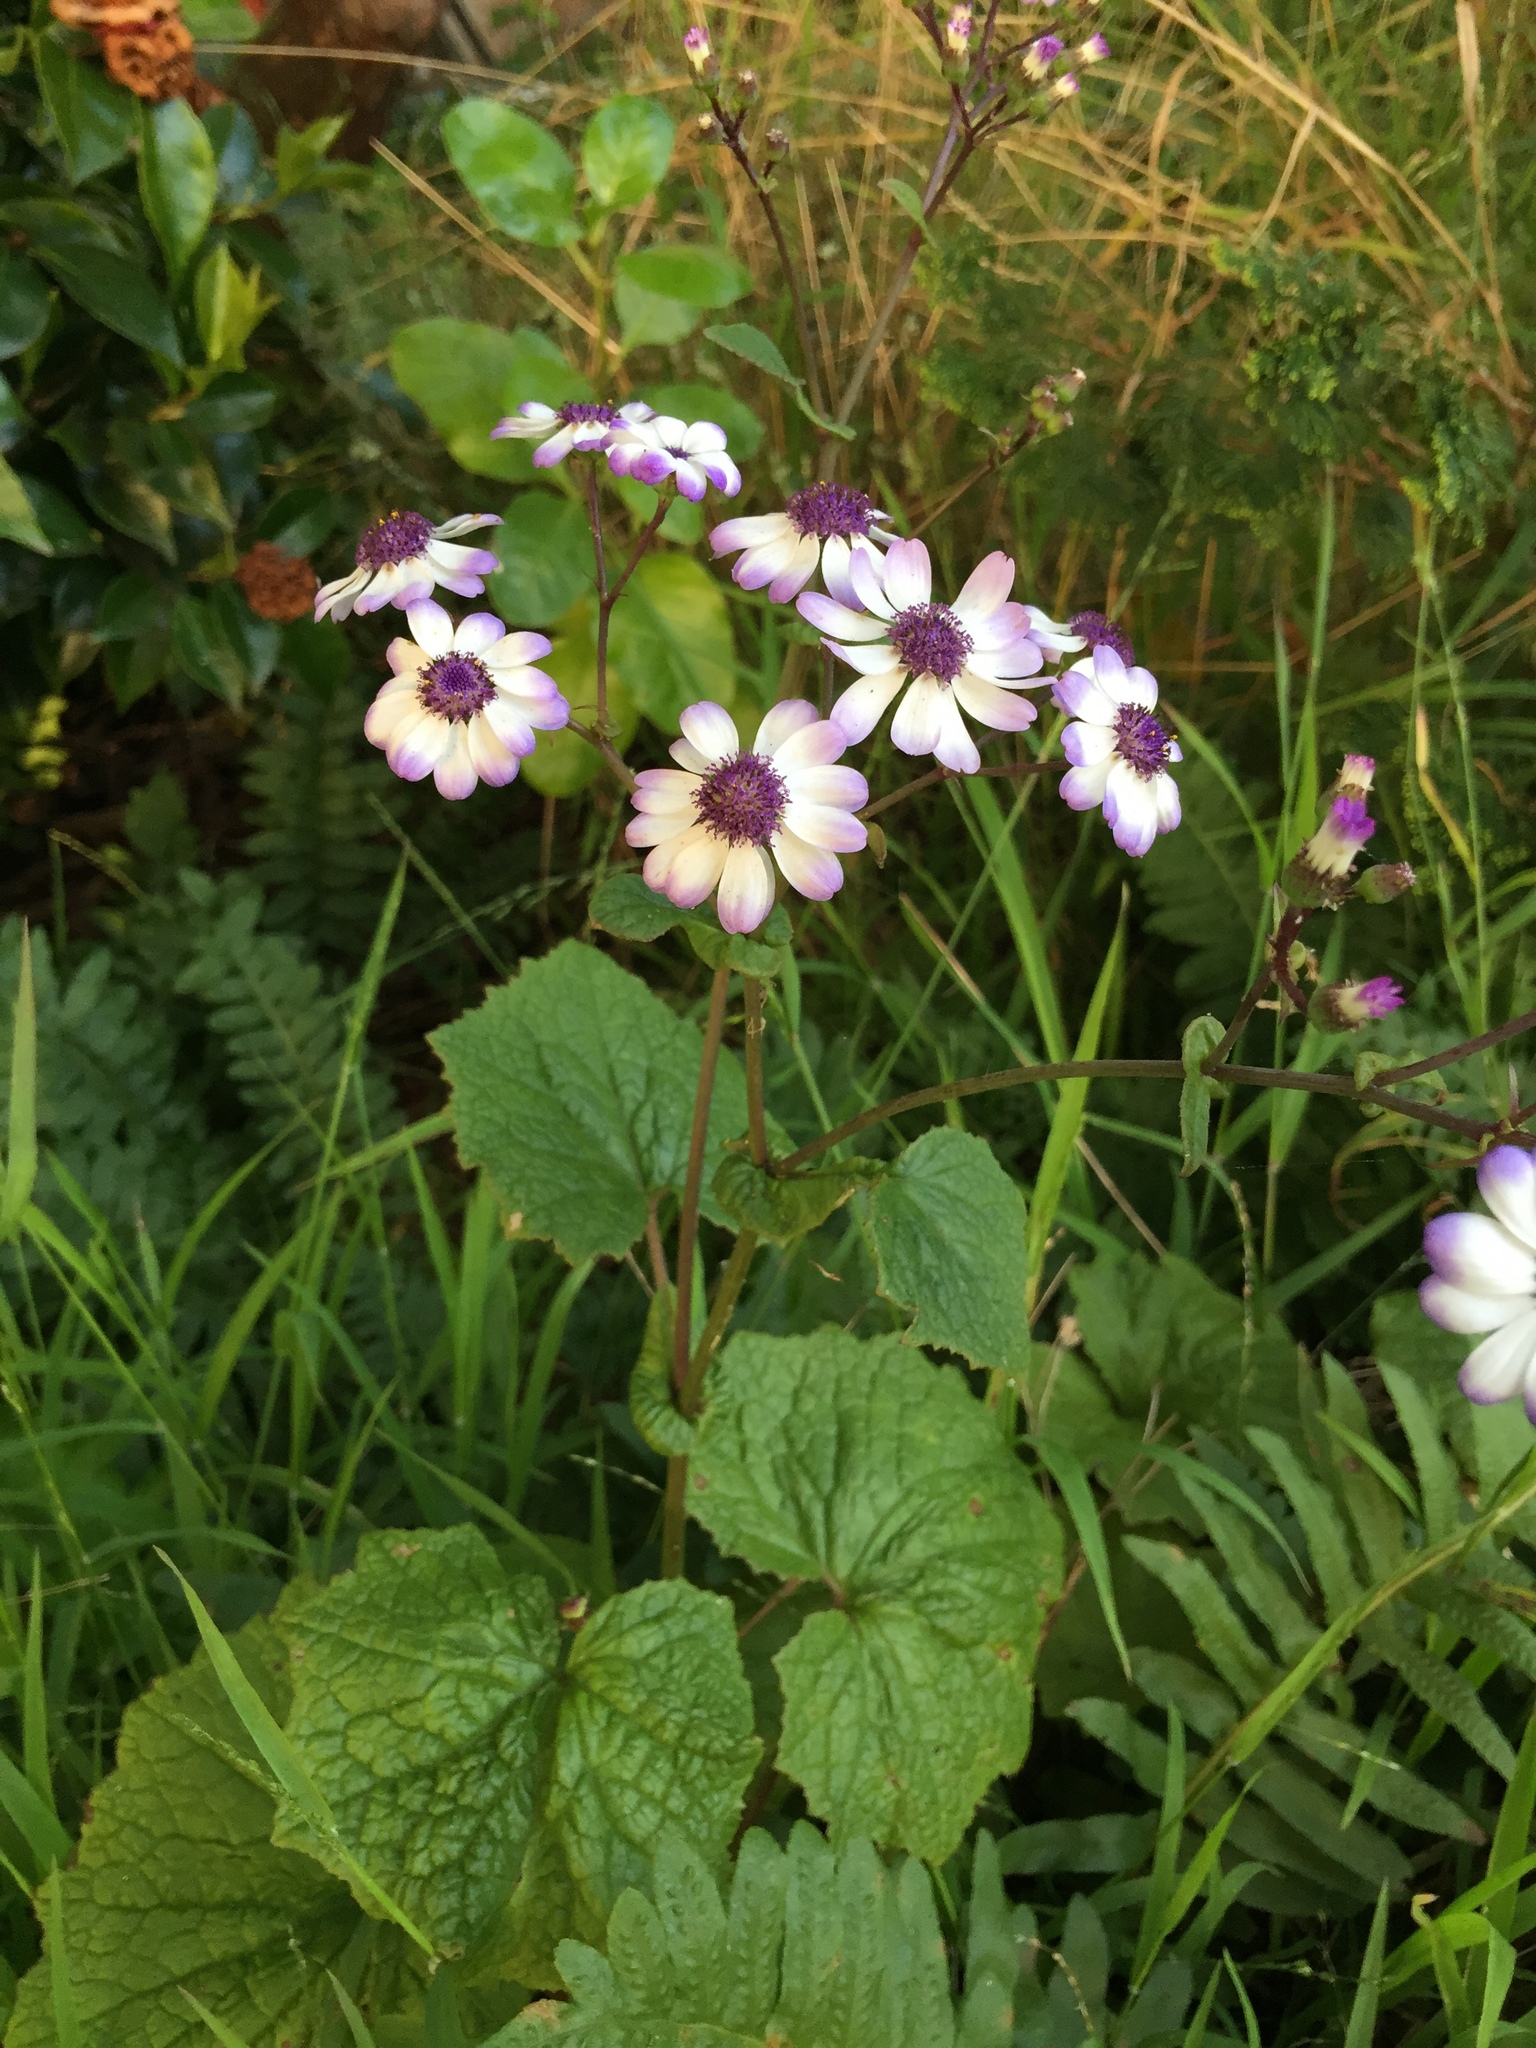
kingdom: Plantae
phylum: Tracheophyta
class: Magnoliopsida
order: Asterales
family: Asteraceae
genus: Pericallis
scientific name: Pericallis hybrida
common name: Cineraria
